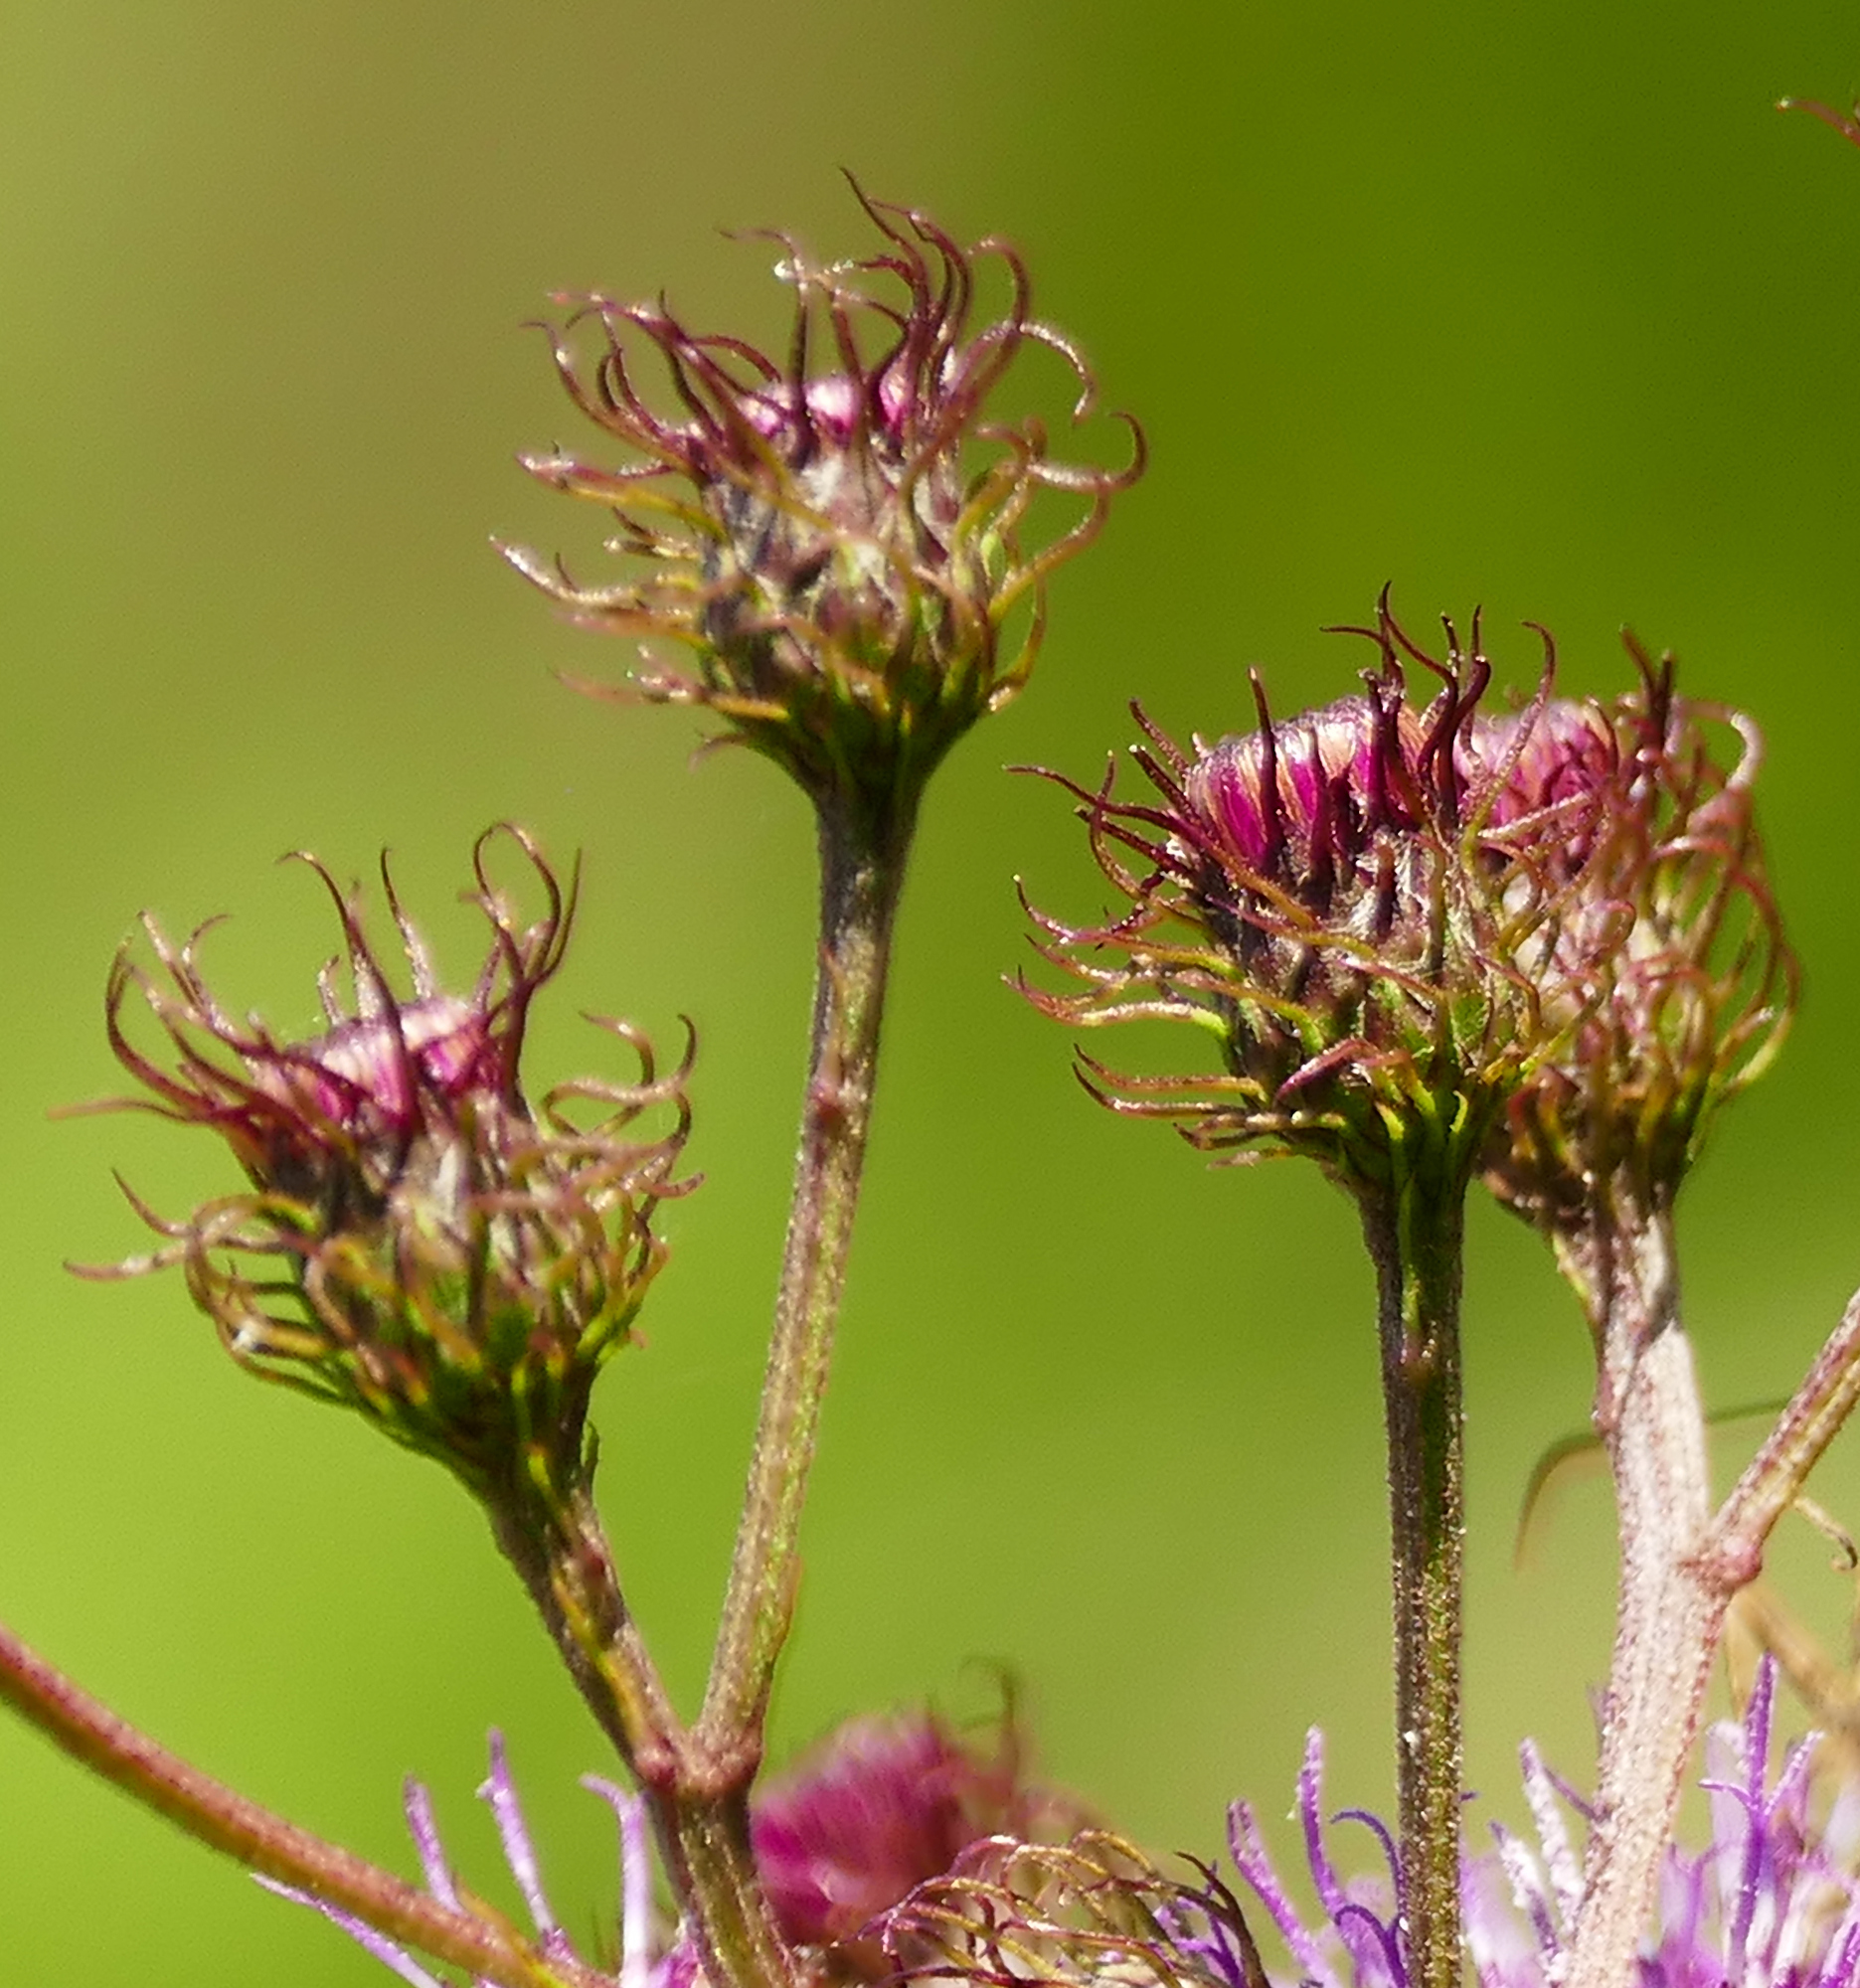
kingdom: Plantae
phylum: Tracheophyta
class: Magnoliopsida
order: Asterales
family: Asteraceae
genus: Vernonia
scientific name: Vernonia noveboracensis
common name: New york ironweed
